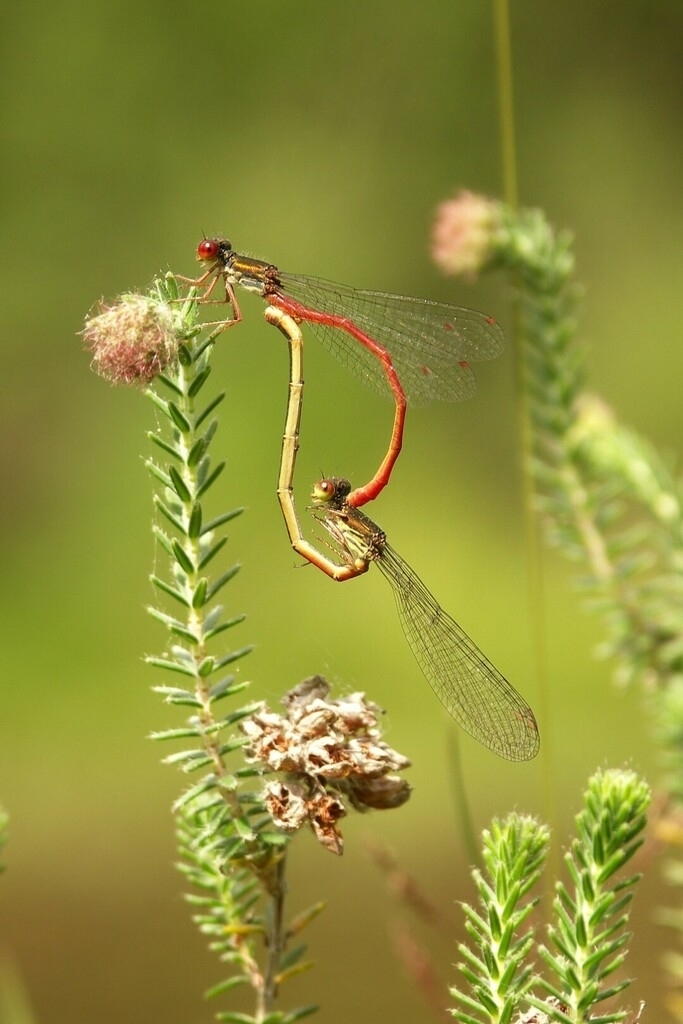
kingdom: Plantae
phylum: Tracheophyta
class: Magnoliopsida
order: Ericales
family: Ericaceae
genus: Erica
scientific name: Erica tetralix
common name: Cross-leaved heath
